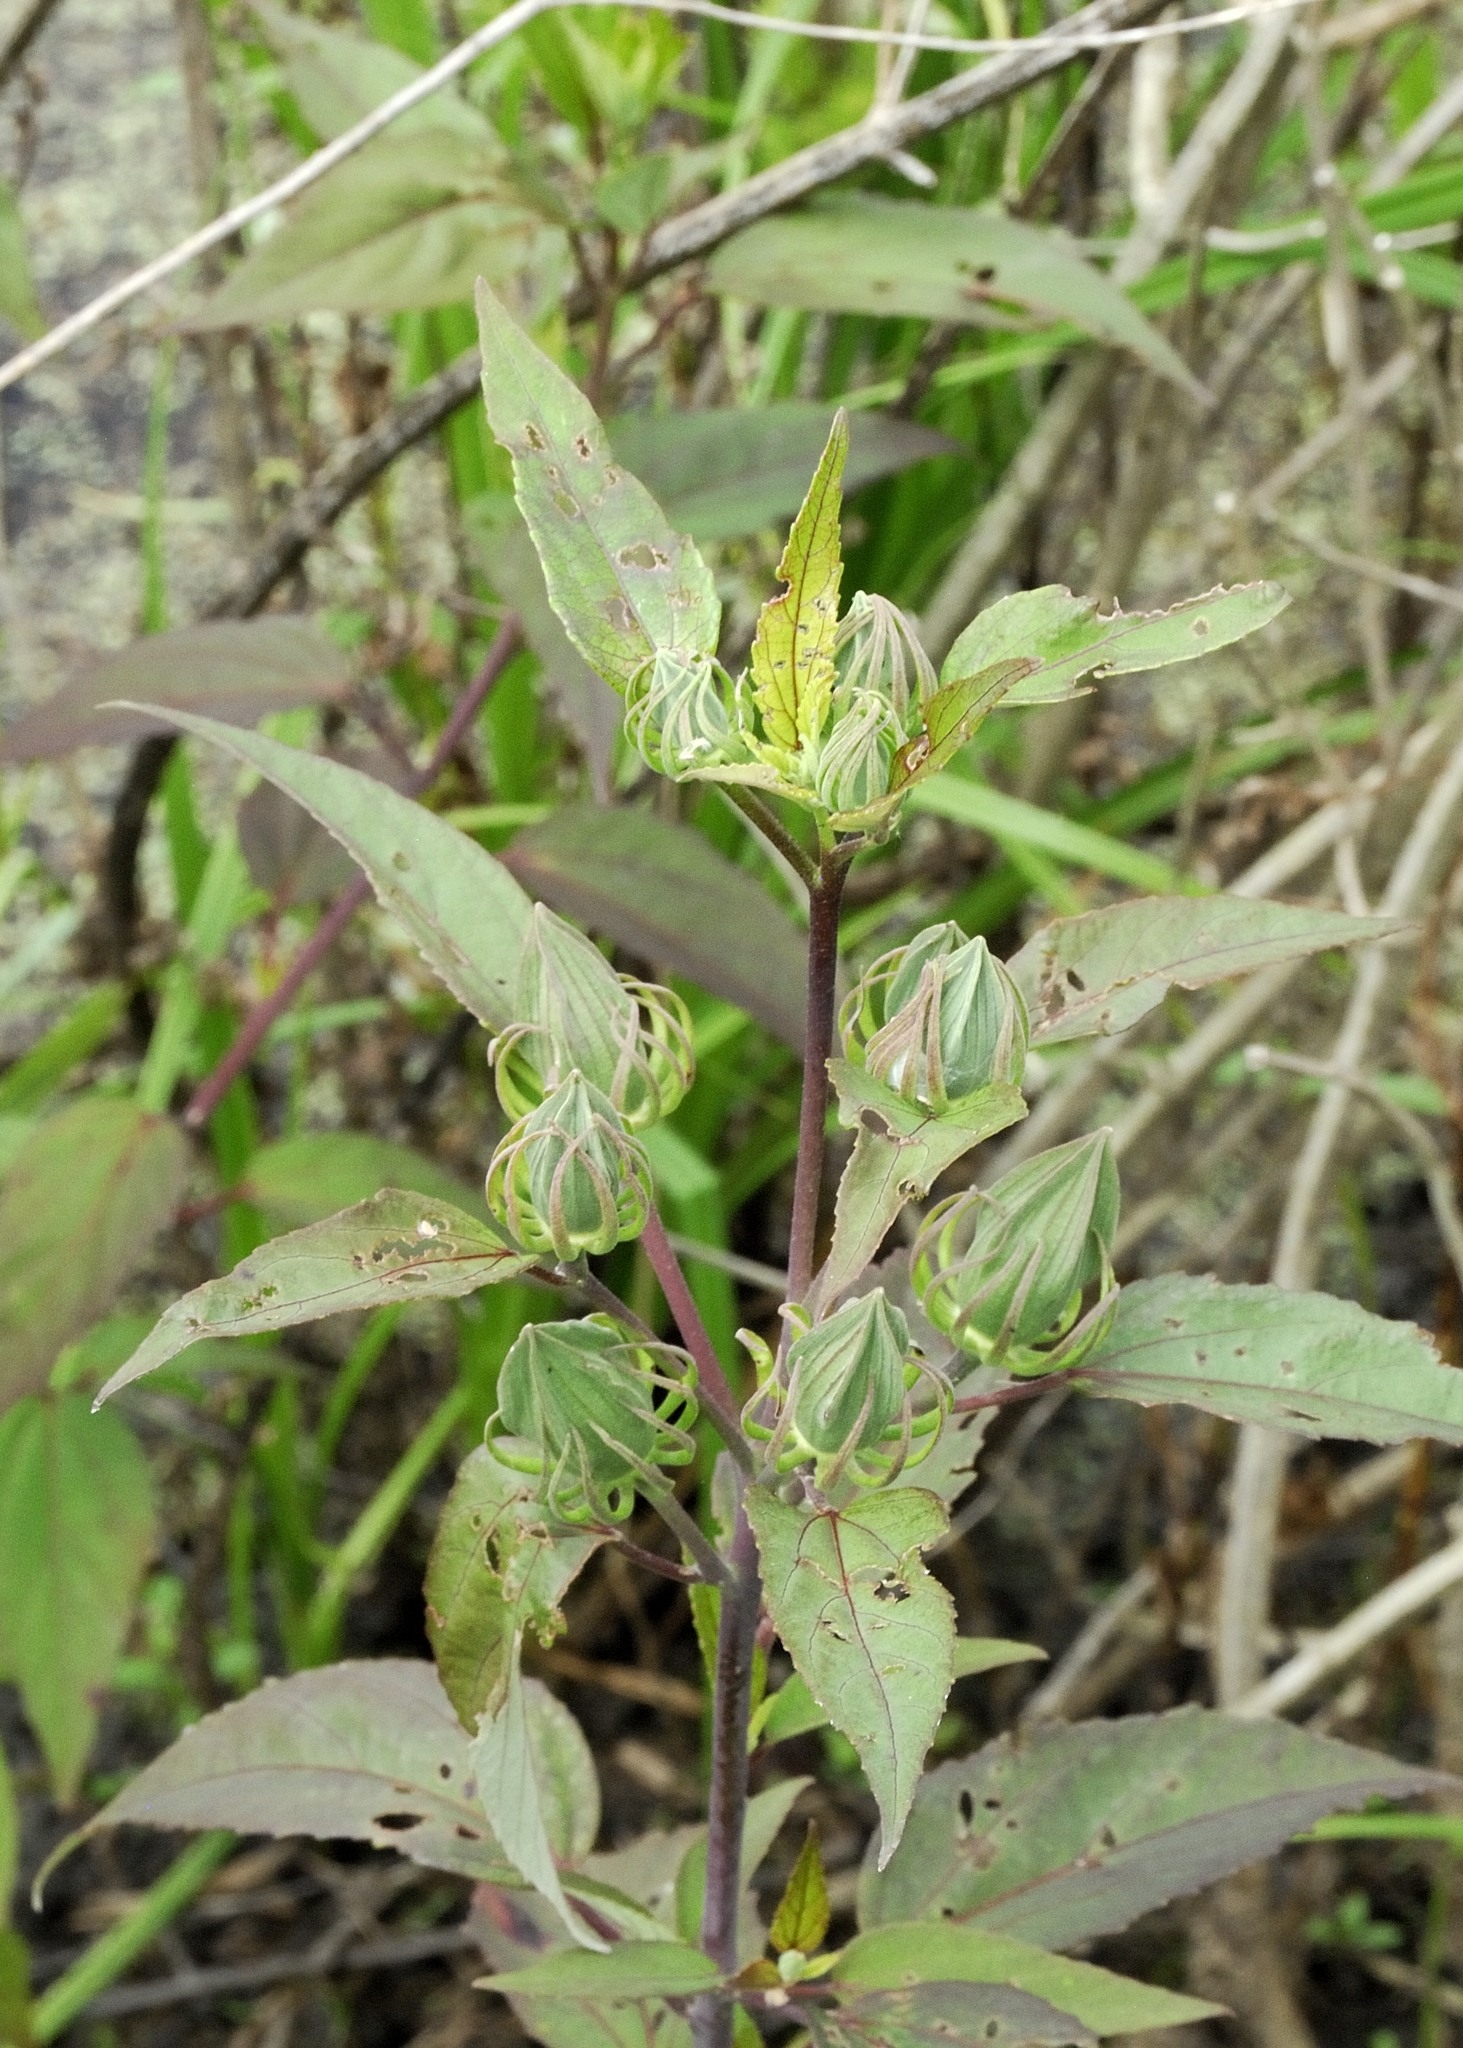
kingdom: Plantae
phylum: Tracheophyta
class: Magnoliopsida
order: Malvales
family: Malvaceae
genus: Hibiscus
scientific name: Hibiscus moscheutos
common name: Common rose-mallow
